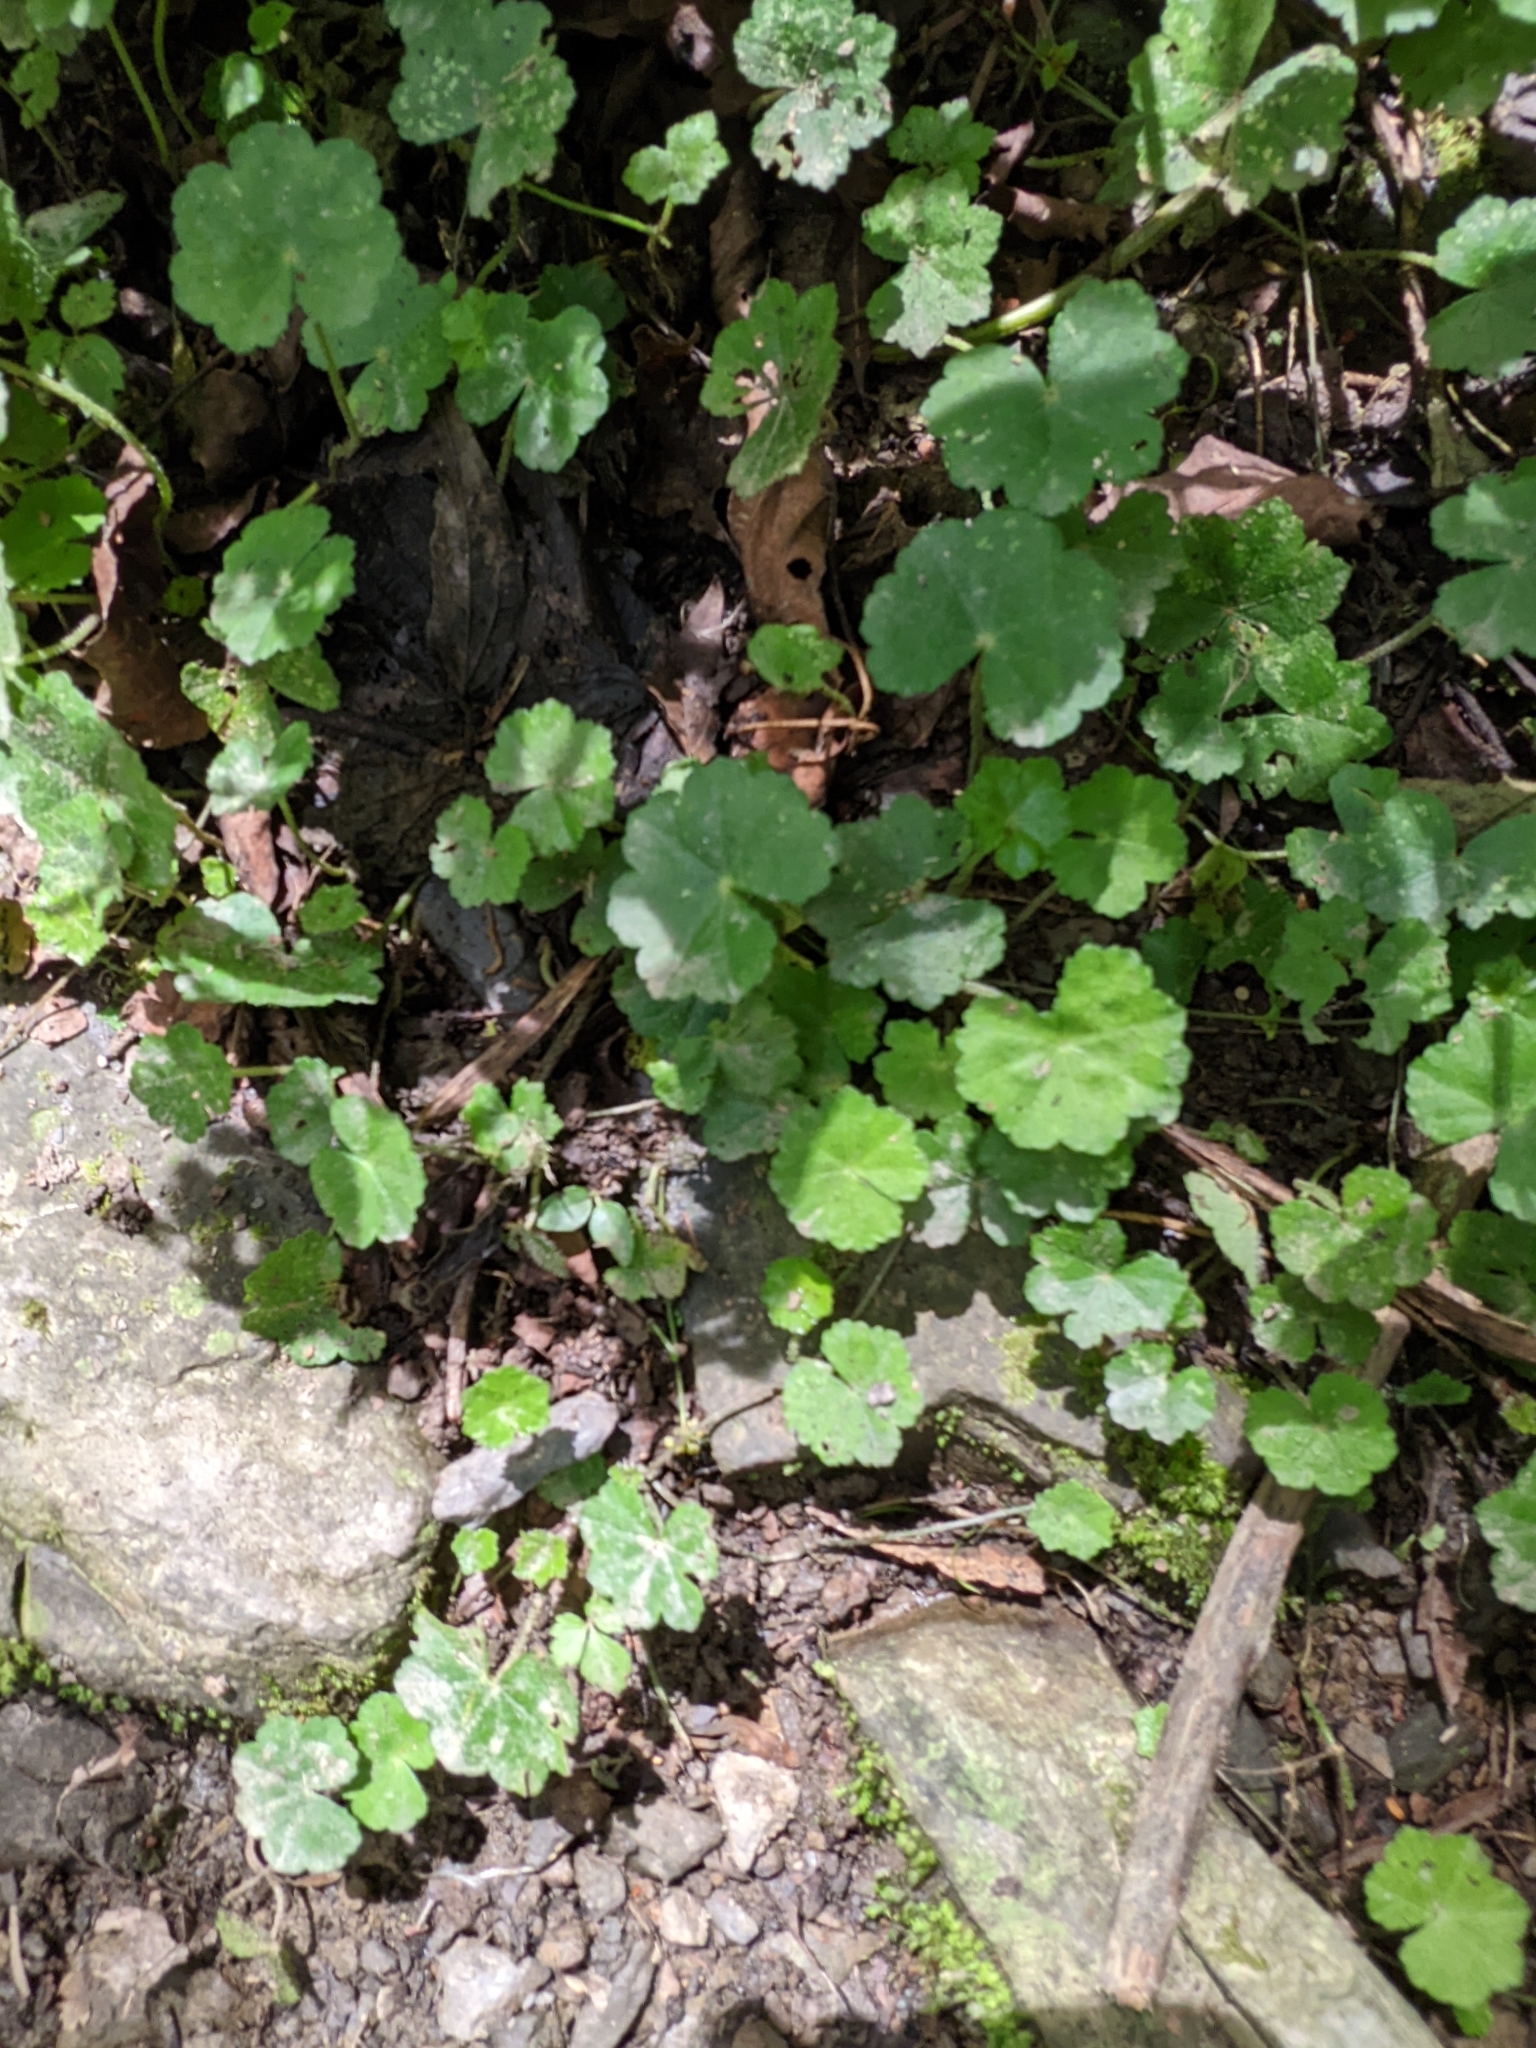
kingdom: Plantae
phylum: Tracheophyta
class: Magnoliopsida
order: Apiales
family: Araliaceae
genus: Hydrocotyle
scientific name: Hydrocotyle nepalensis
